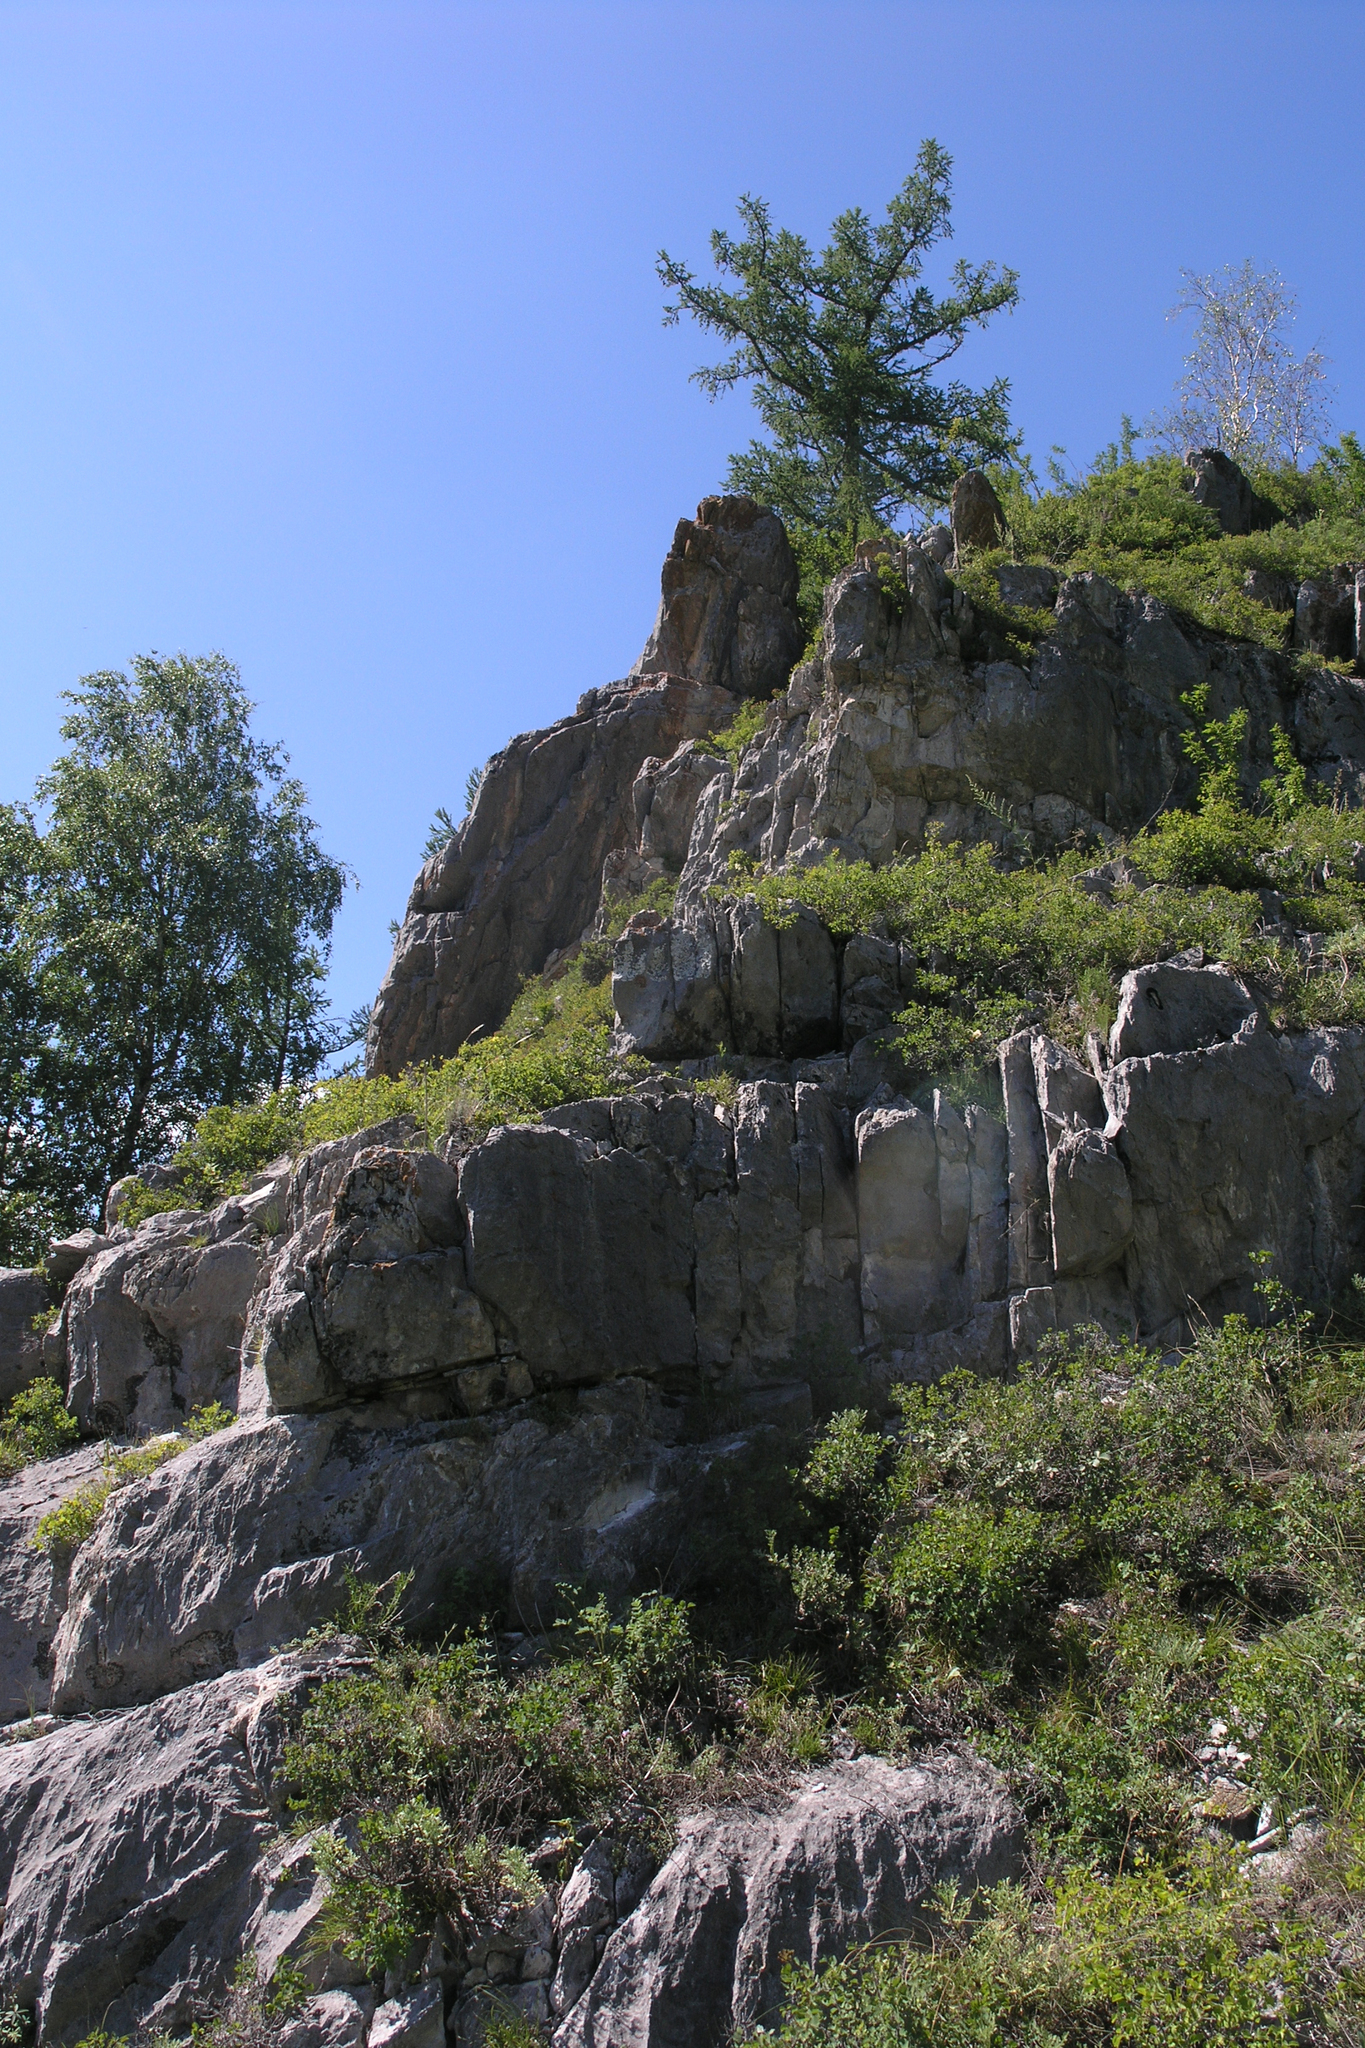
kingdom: Plantae
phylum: Tracheophyta
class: Pinopsida
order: Pinales
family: Pinaceae
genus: Larix
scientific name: Larix sibirica
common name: Siberian larch
